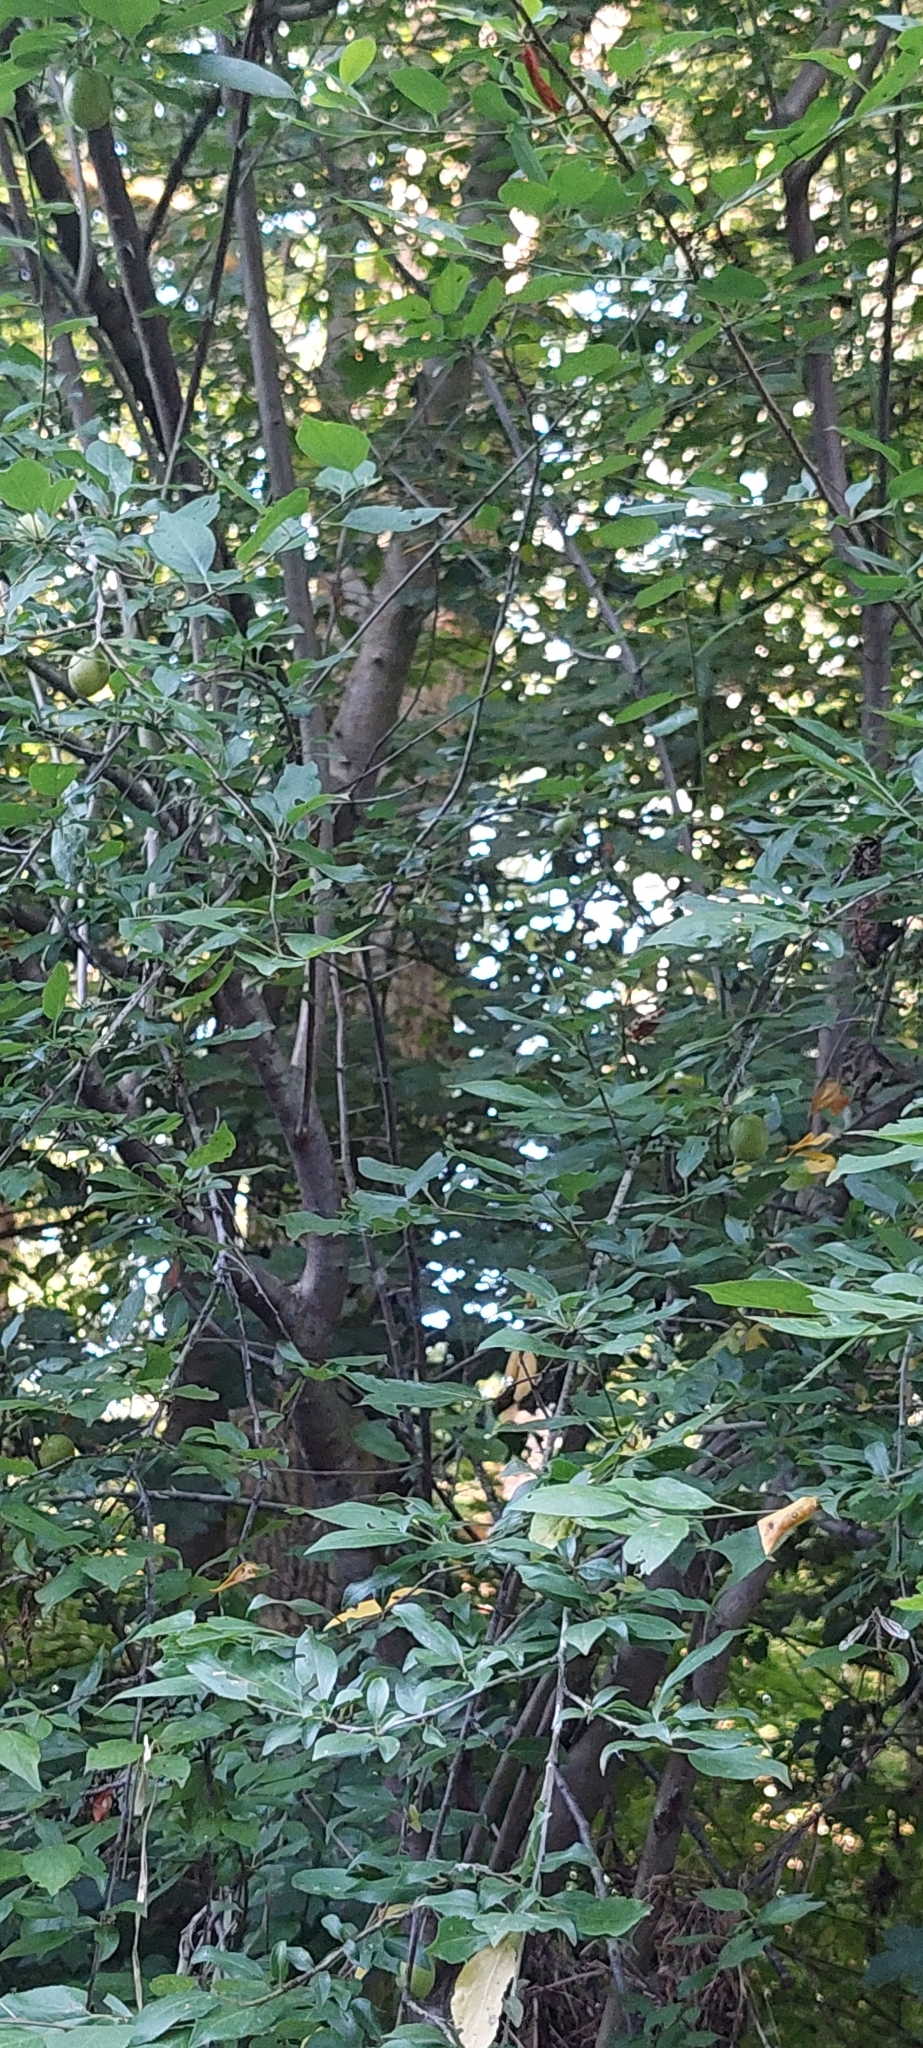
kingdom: Plantae
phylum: Tracheophyta
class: Magnoliopsida
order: Rosales
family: Rosaceae
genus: Prunus
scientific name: Prunus cerasifera
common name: Cherry plum
